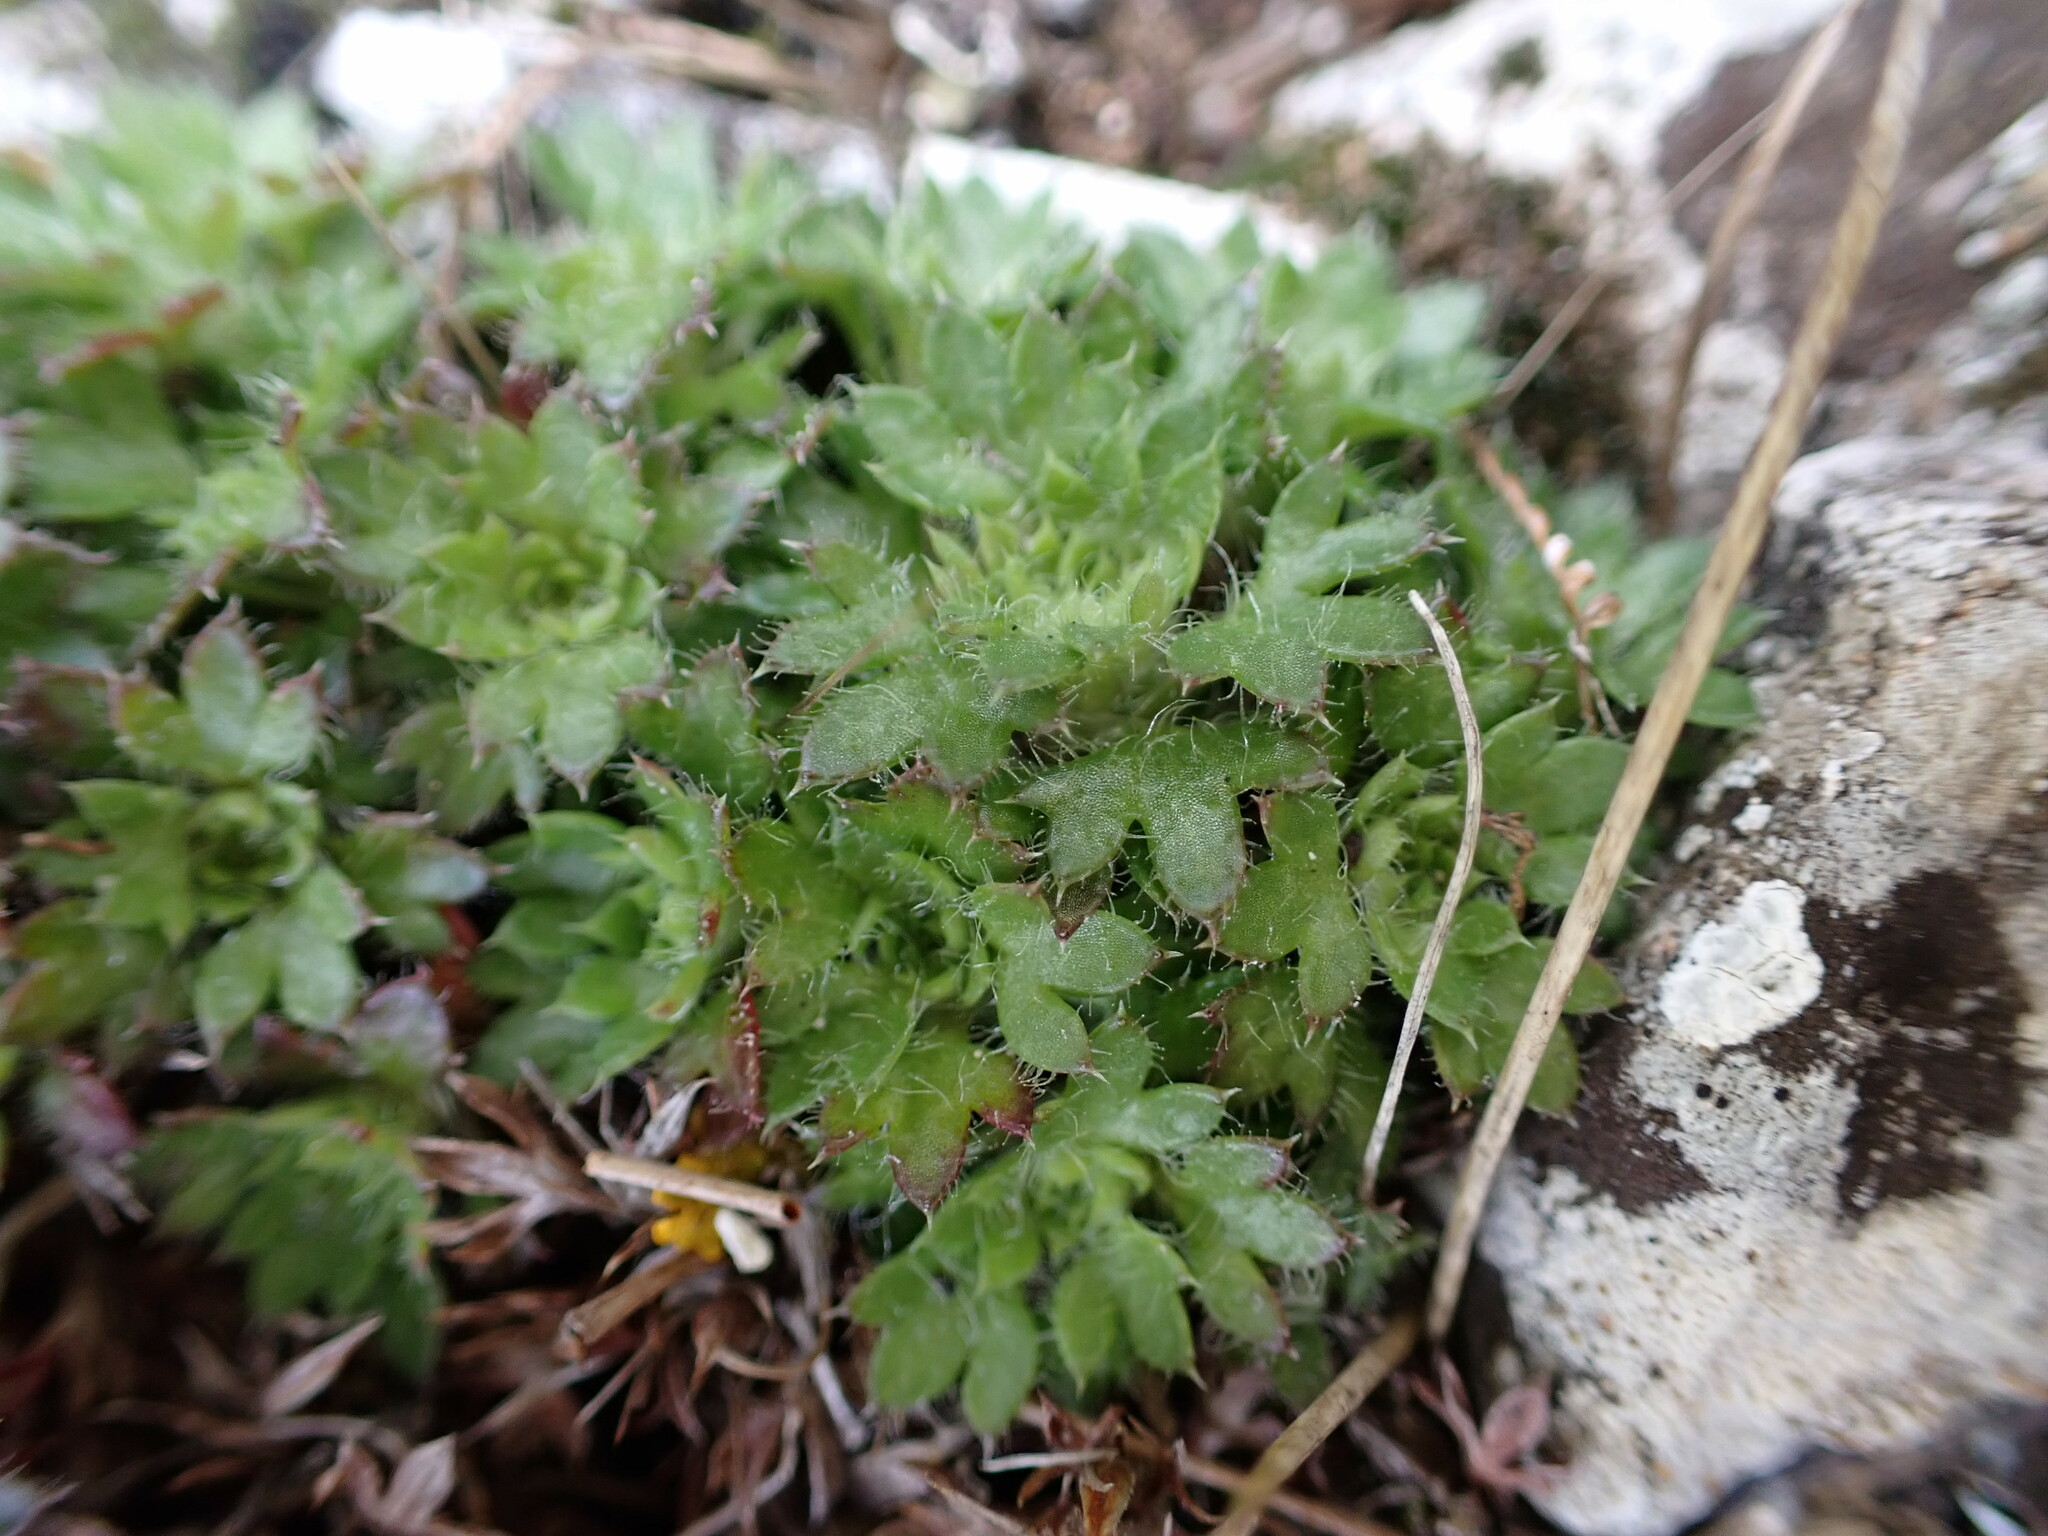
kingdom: Plantae
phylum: Tracheophyta
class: Magnoliopsida
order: Saxifragales
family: Saxifragaceae
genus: Saxifraga
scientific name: Saxifraga fragosoi
